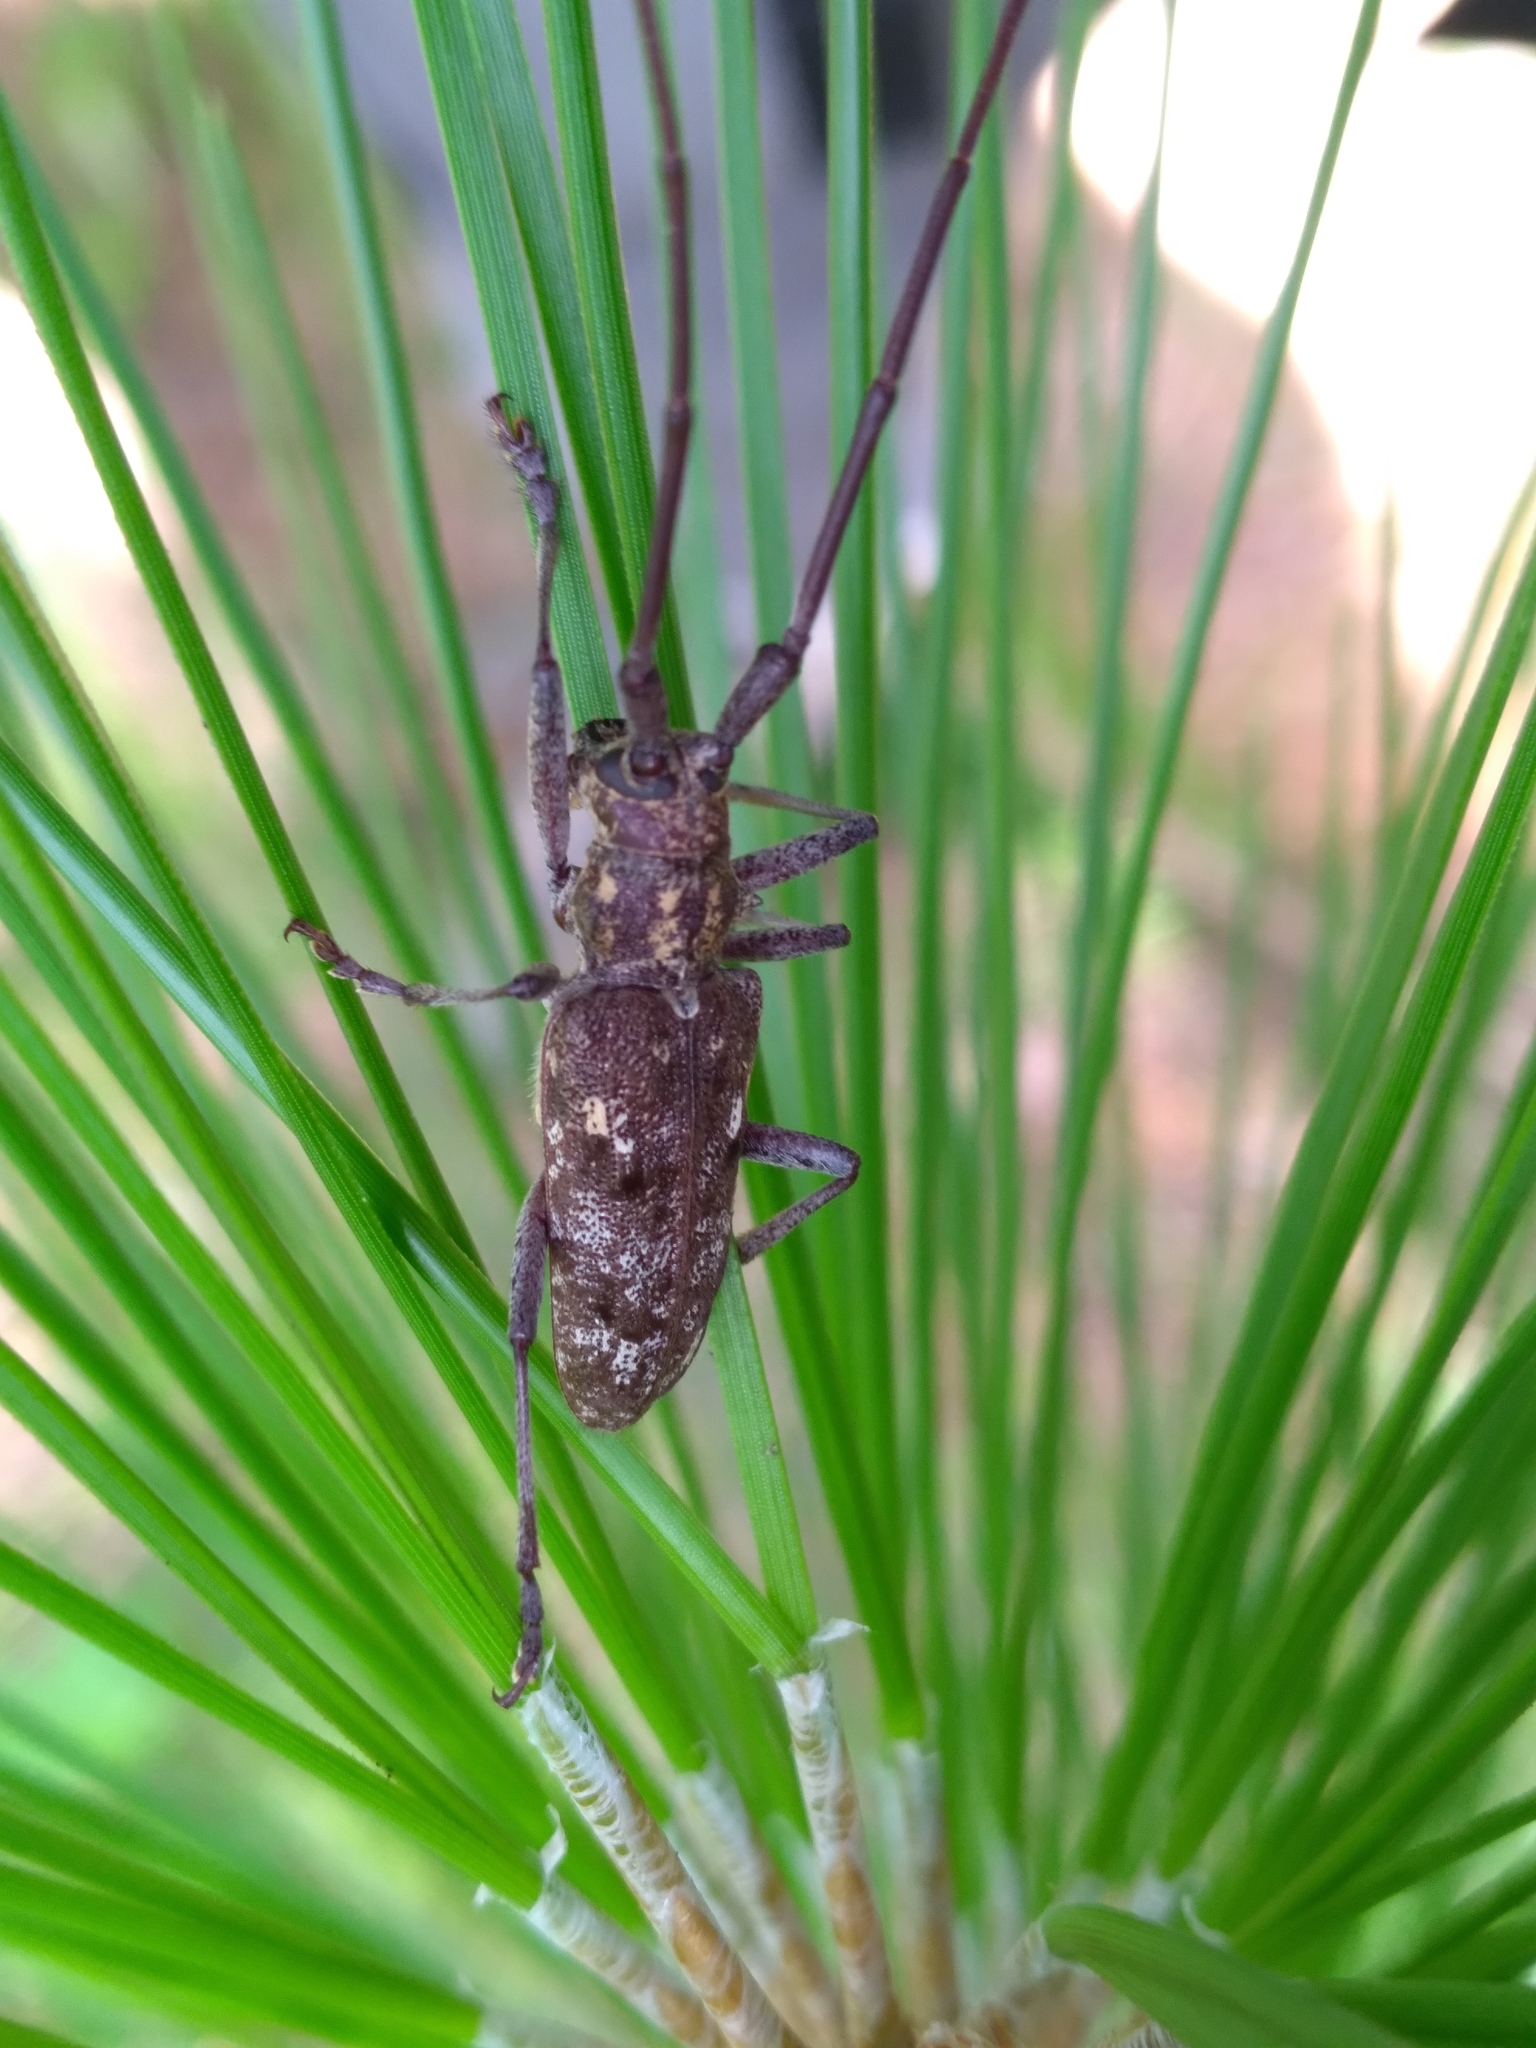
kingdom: Animalia
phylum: Arthropoda
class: Insecta
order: Coleoptera
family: Cerambycidae
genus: Monochamus
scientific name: Monochamus carolinensis
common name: Carolina pine sawyer
